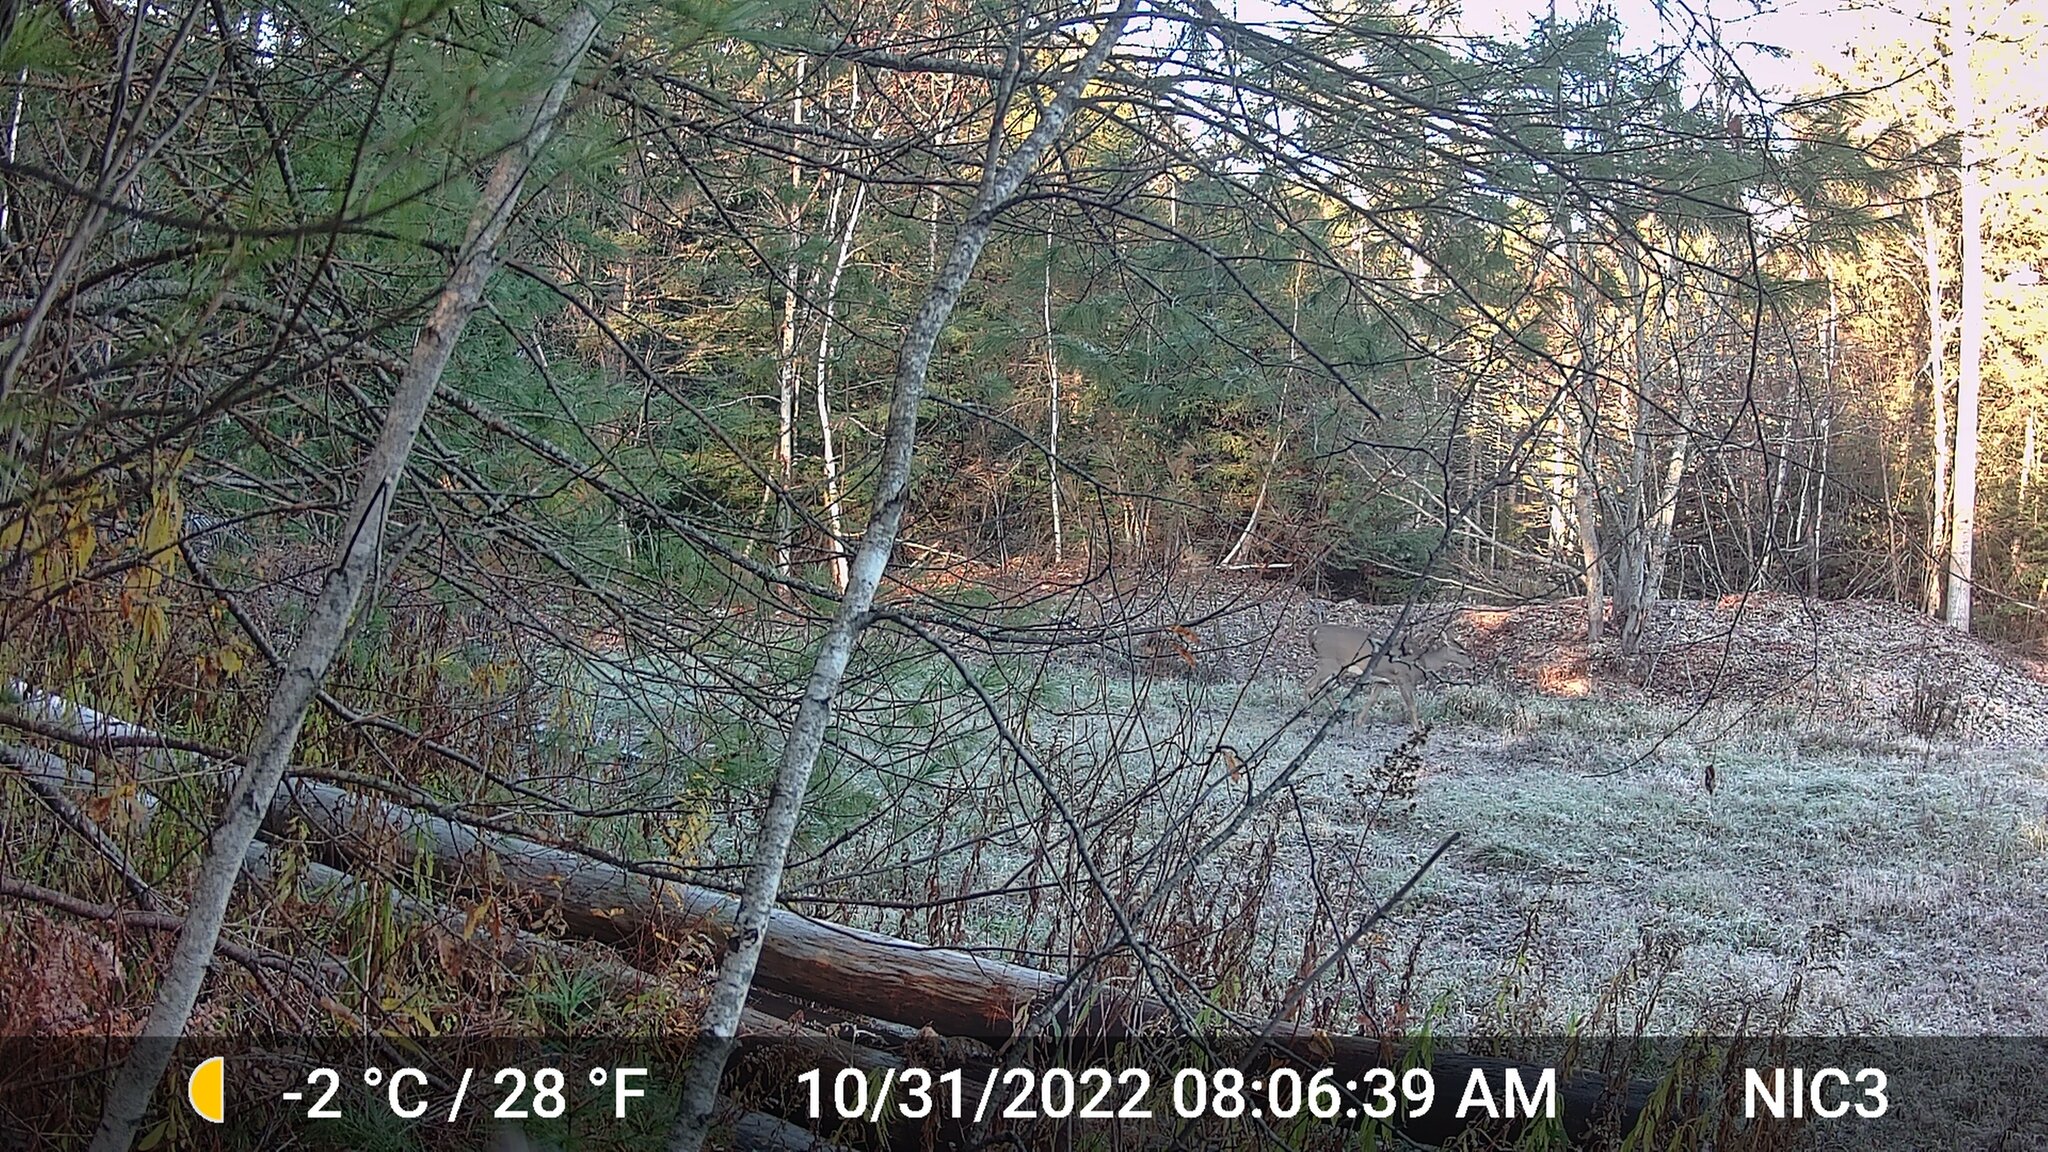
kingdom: Animalia
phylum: Chordata
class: Mammalia
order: Artiodactyla
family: Cervidae
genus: Odocoileus
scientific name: Odocoileus virginianus
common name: White-tailed deer
